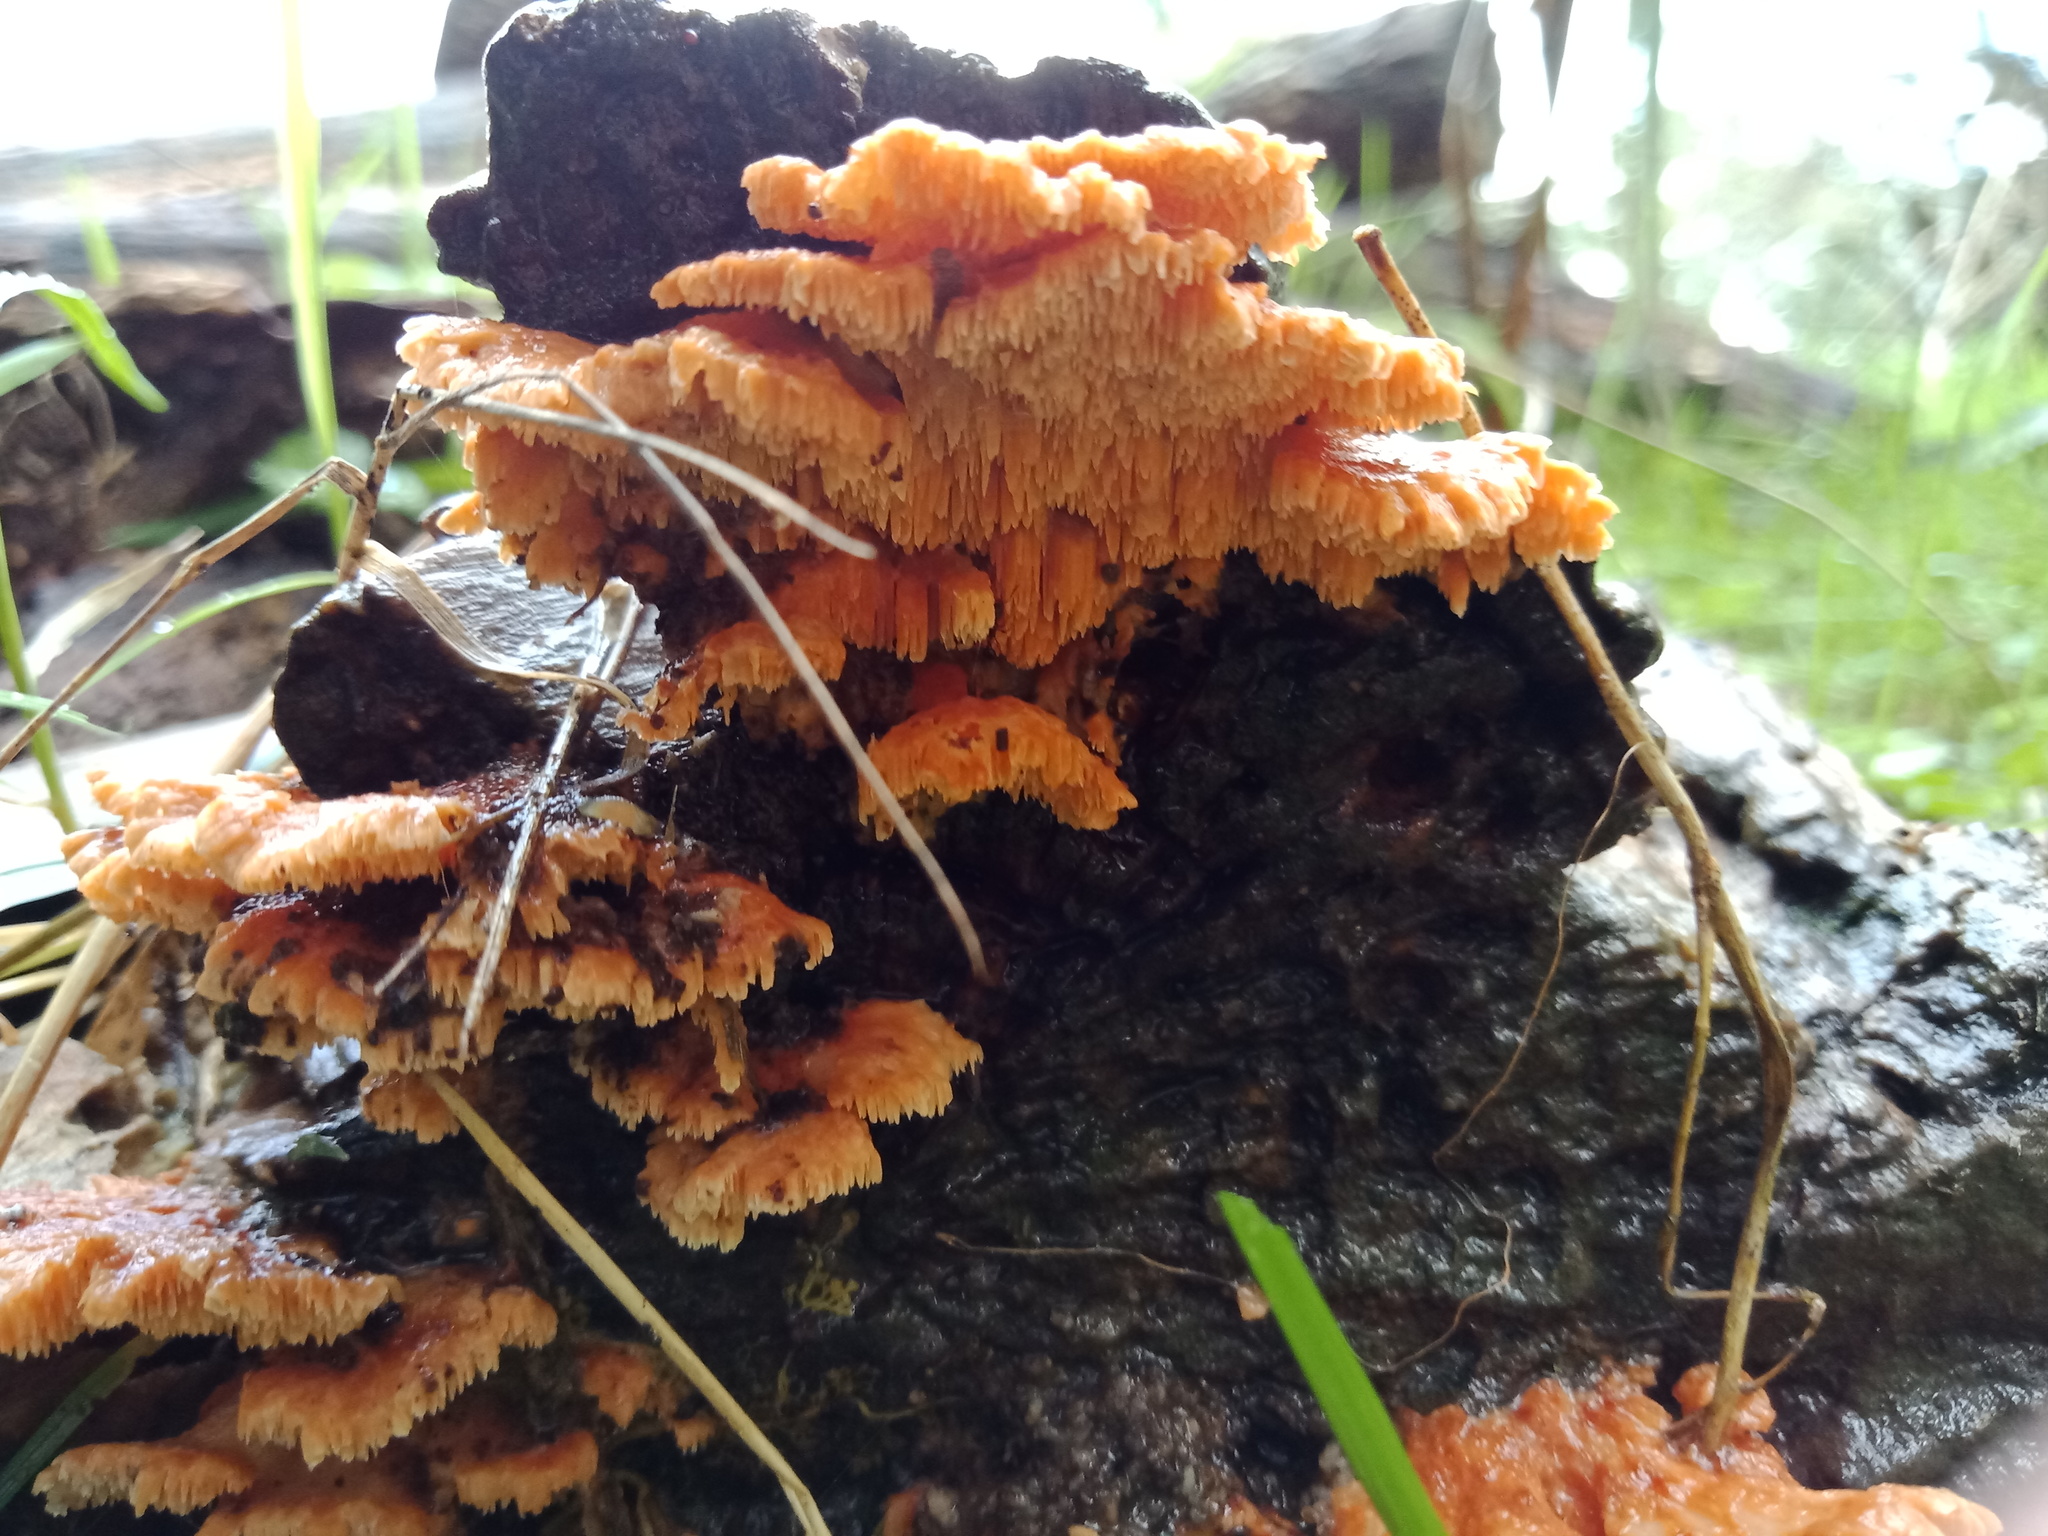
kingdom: Fungi
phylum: Basidiomycota
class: Agaricomycetes
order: Polyporales
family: Cerrenaceae
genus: Cerrena
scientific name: Cerrena zonata
